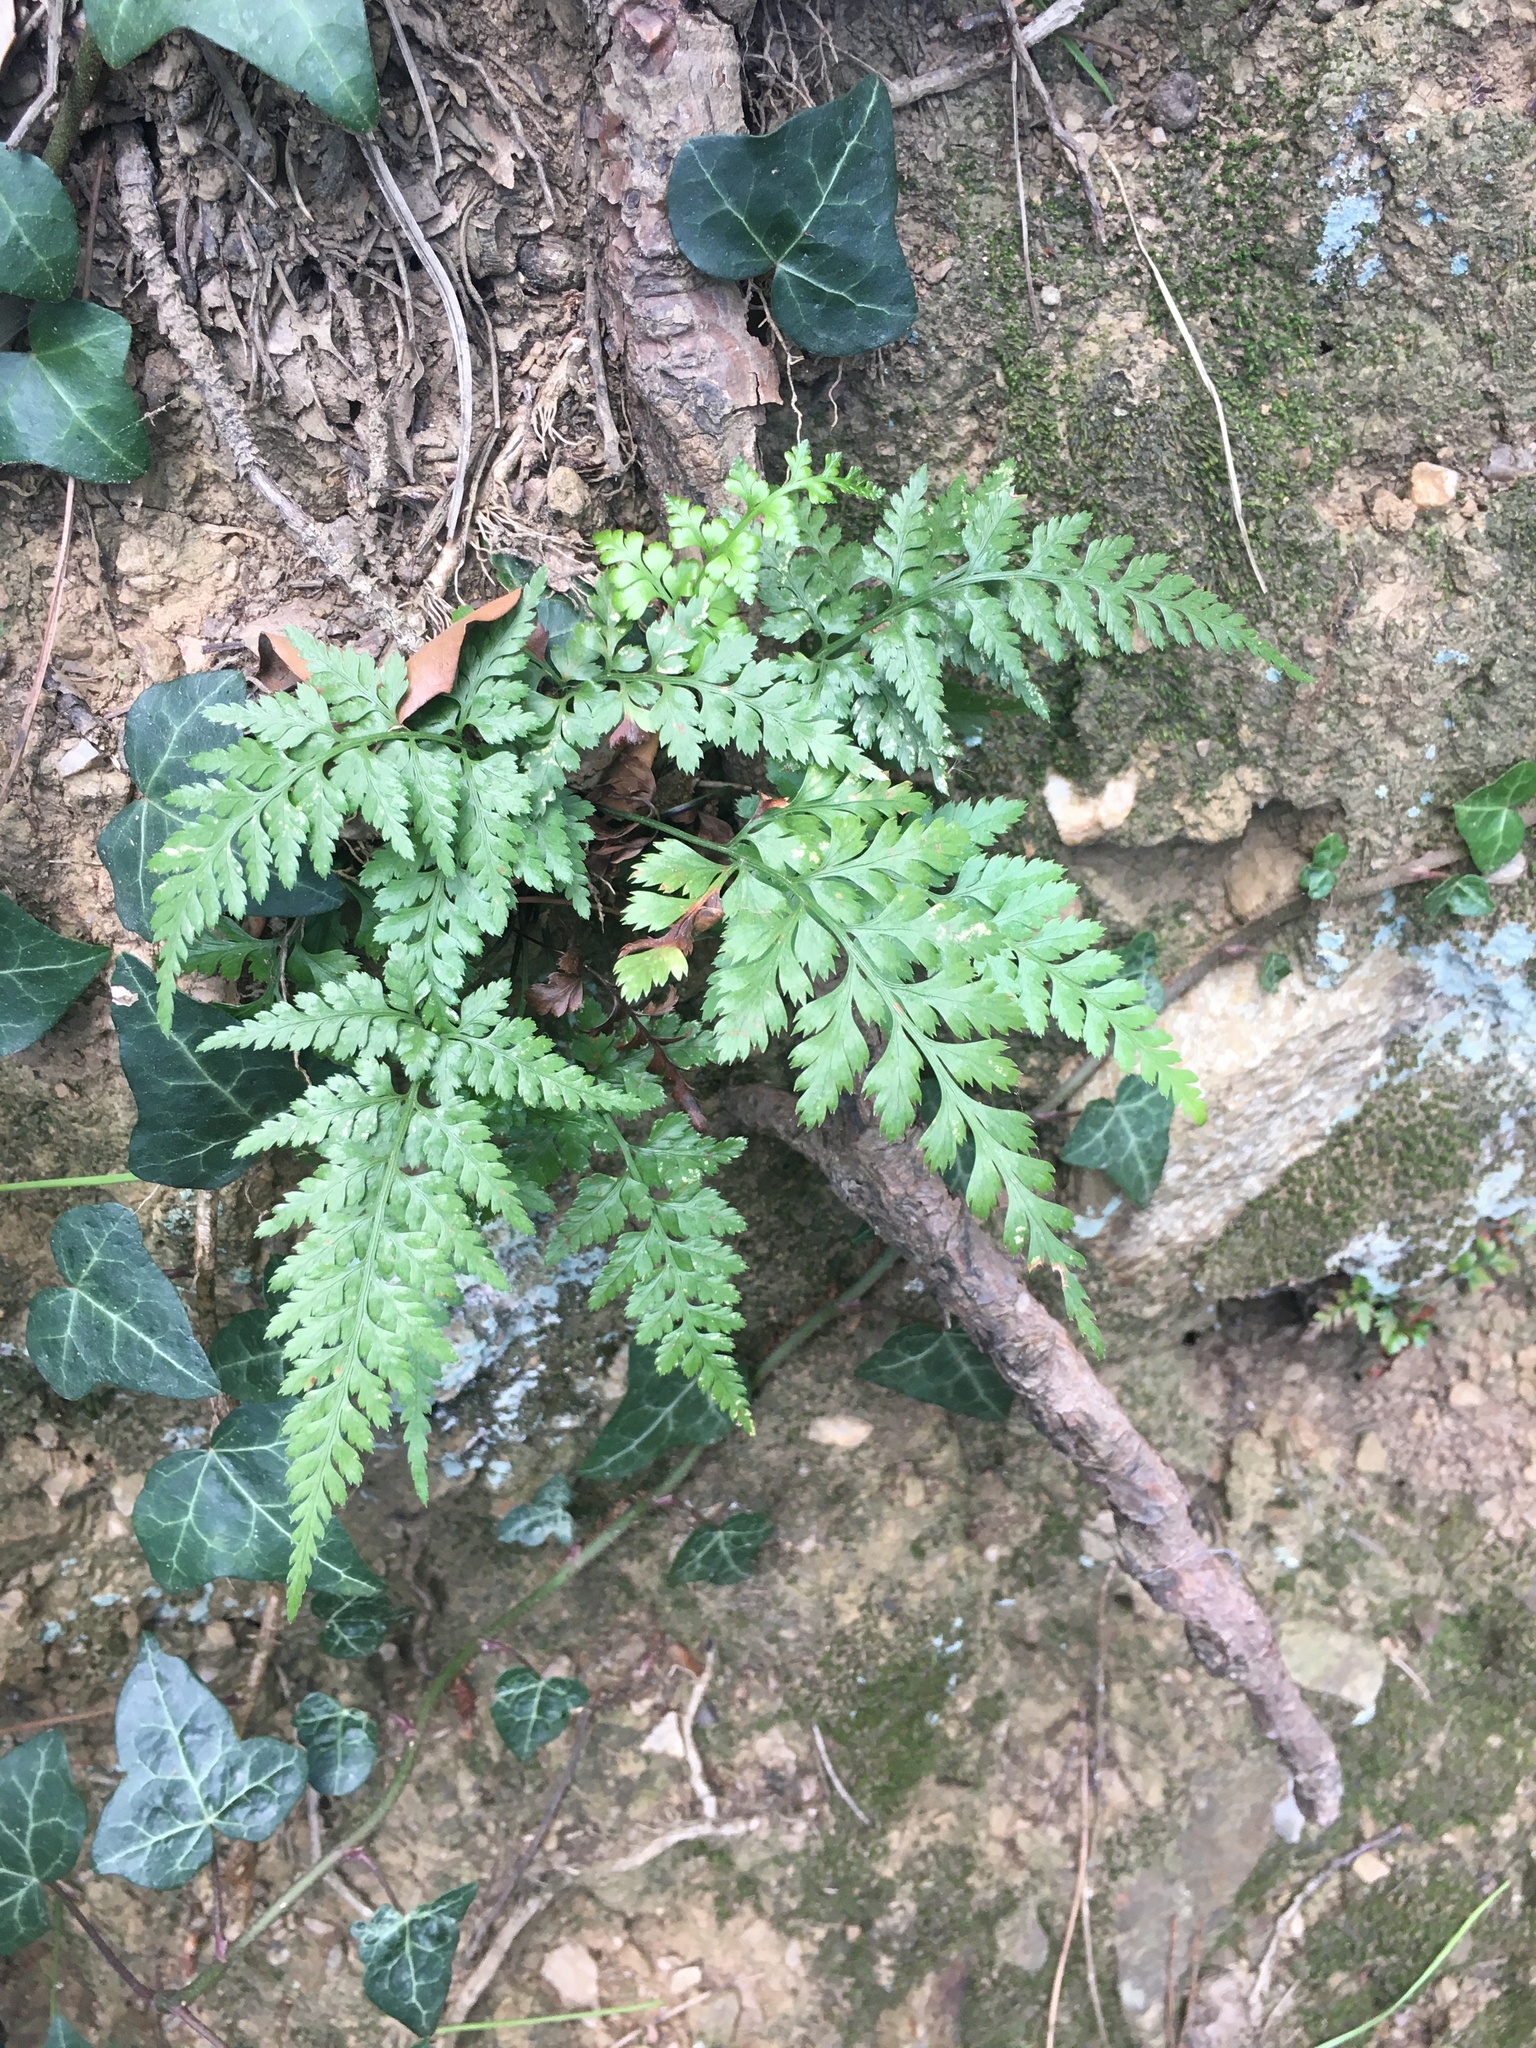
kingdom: Plantae
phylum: Tracheophyta
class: Polypodiopsida
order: Polypodiales
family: Aspleniaceae
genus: Asplenium
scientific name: Asplenium adiantum-nigrum
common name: Black spleenwort
